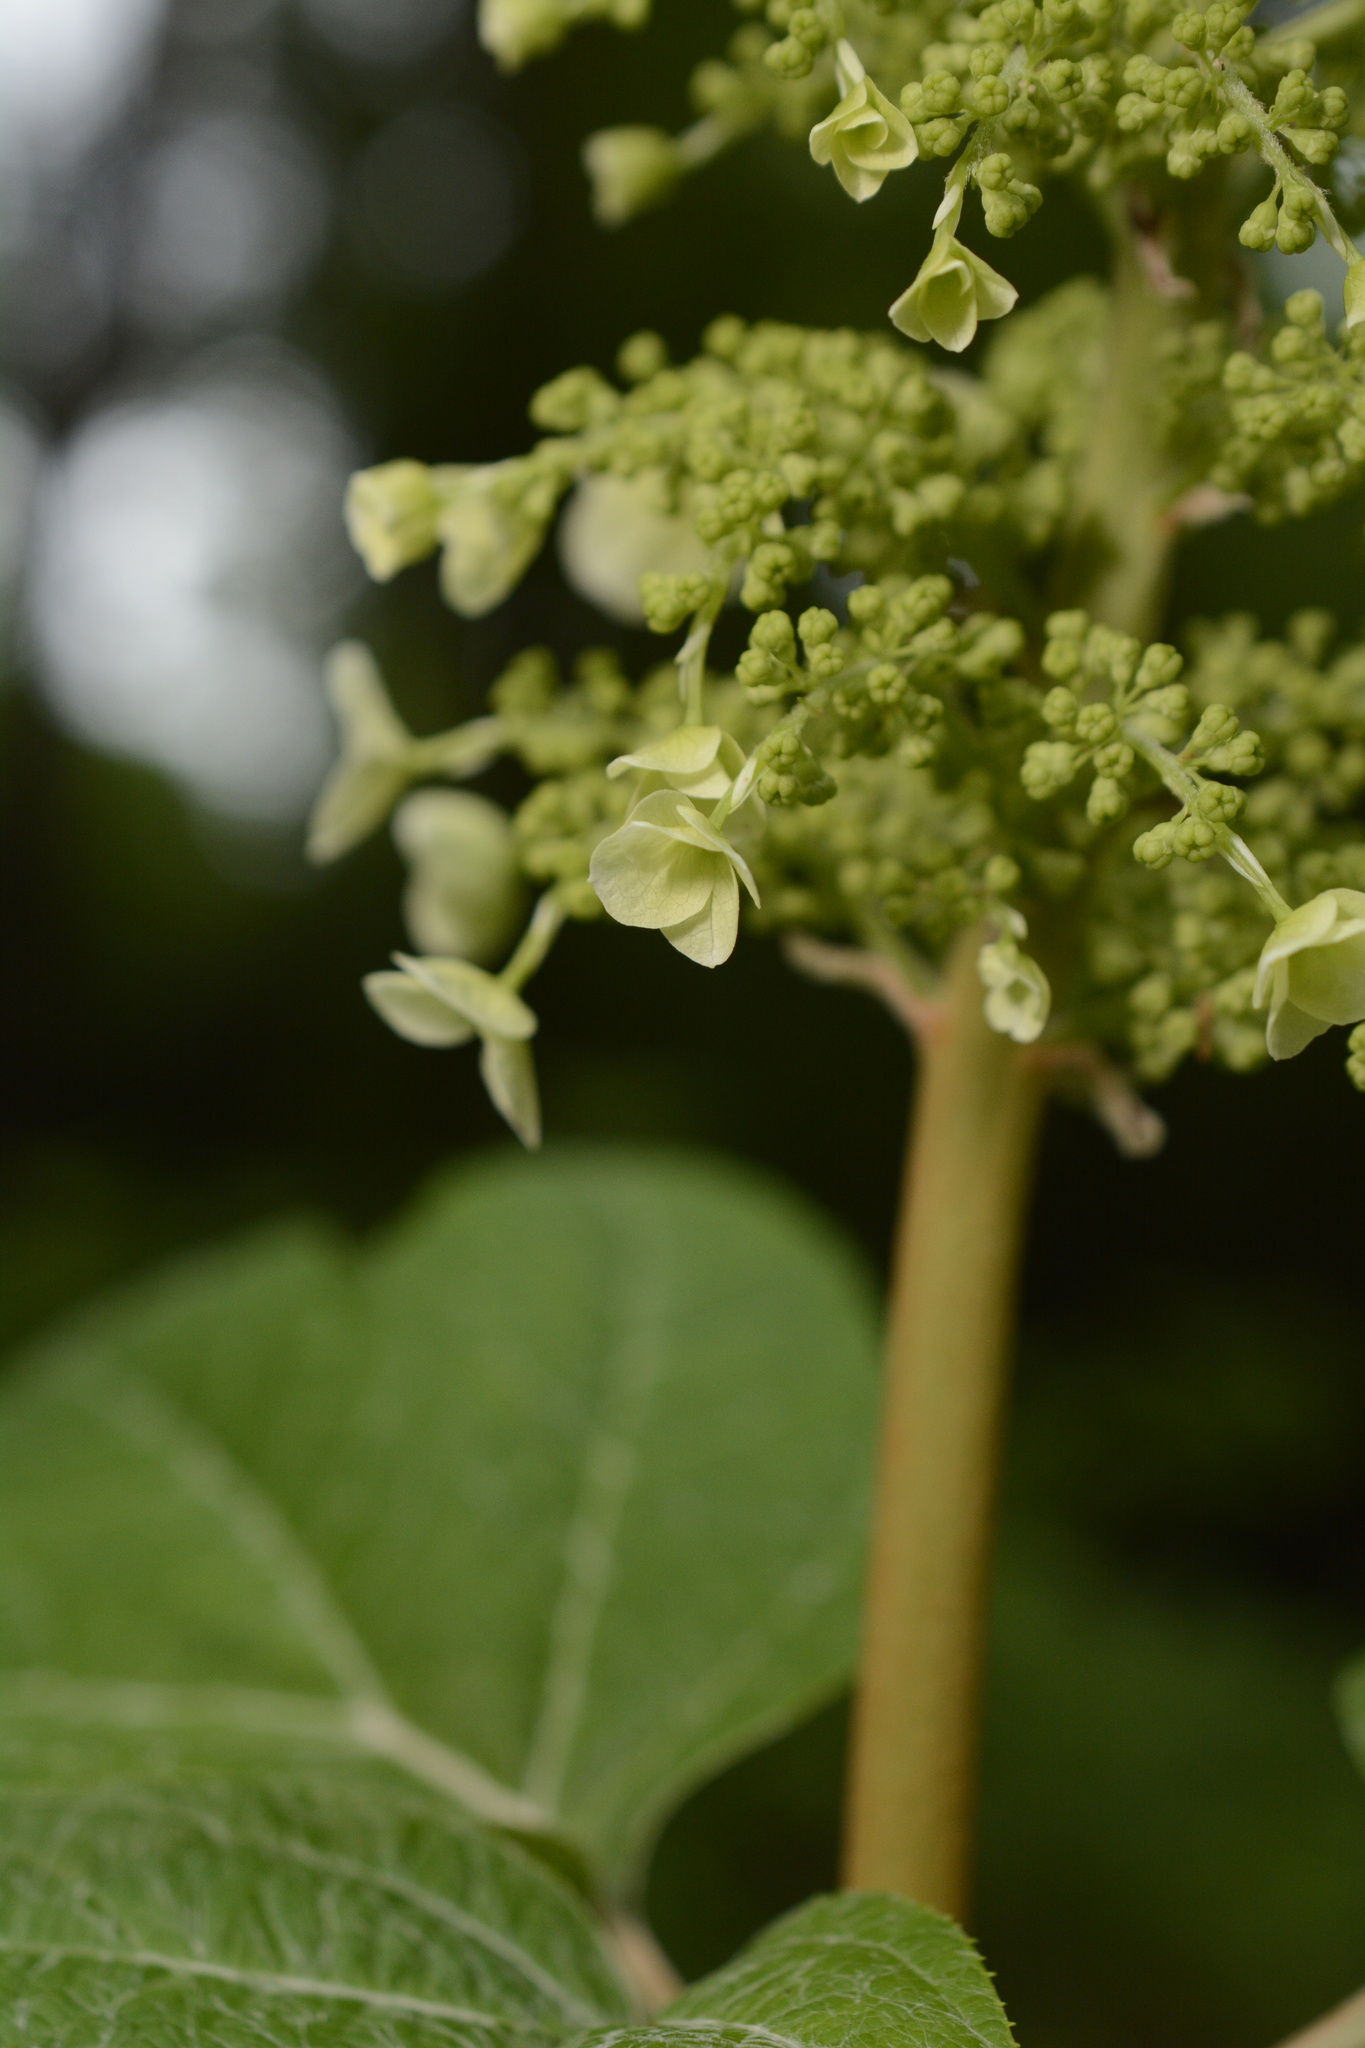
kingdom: Plantae
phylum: Tracheophyta
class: Magnoliopsida
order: Cornales
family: Hydrangeaceae
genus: Hydrangea
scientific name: Hydrangea quercifolia
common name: Oak-leaf hydrangea
